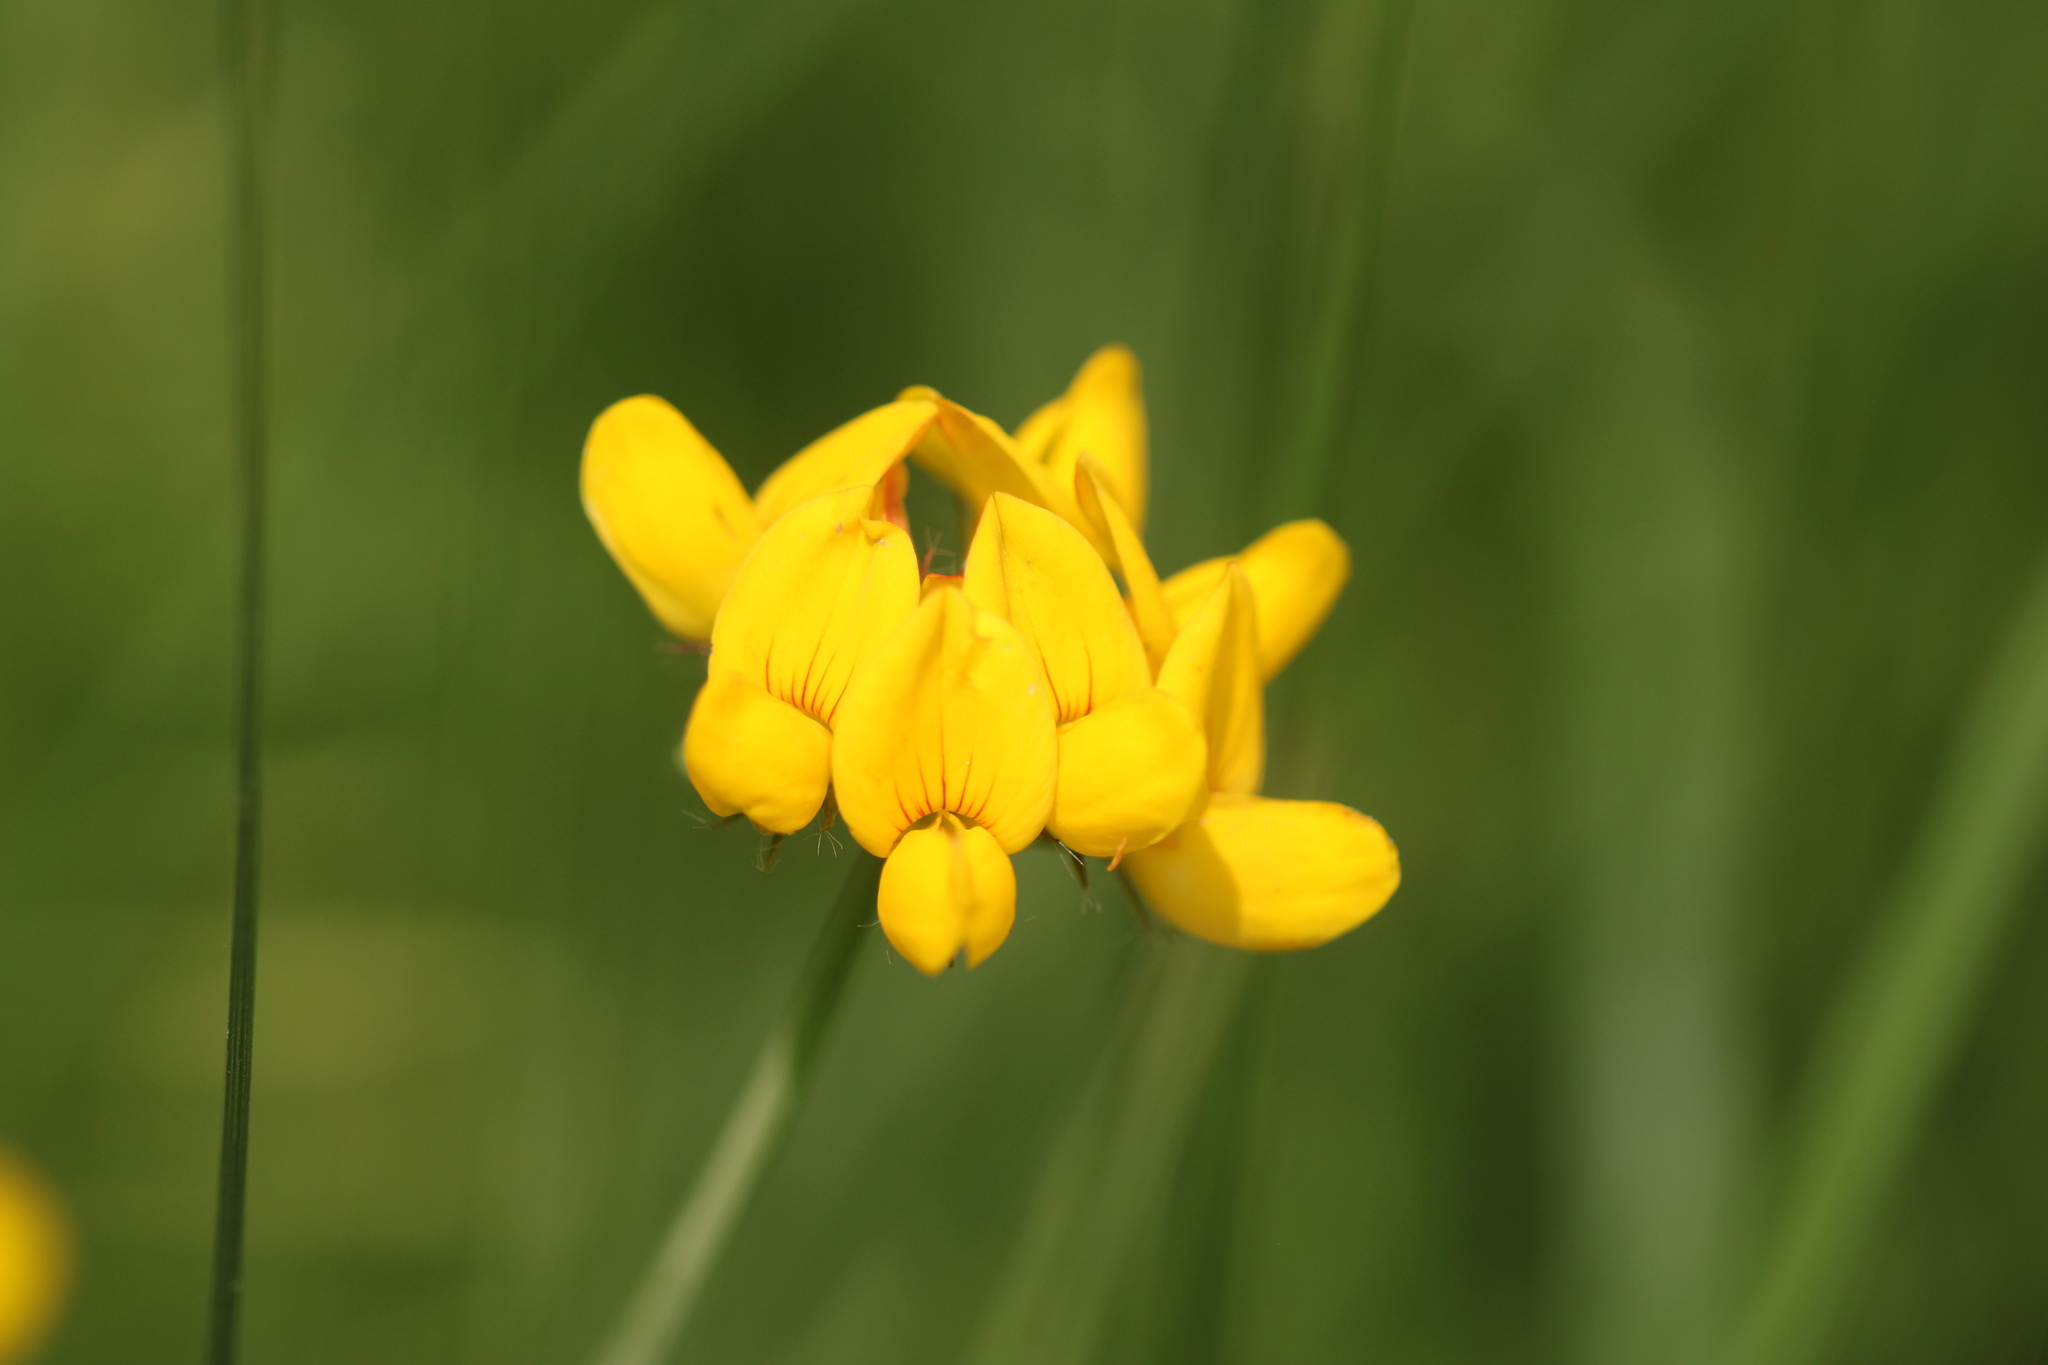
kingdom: Plantae
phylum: Tracheophyta
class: Magnoliopsida
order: Fabales
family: Fabaceae
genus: Lotus
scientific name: Lotus pedunculatus
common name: Greater birdsfoot-trefoil
